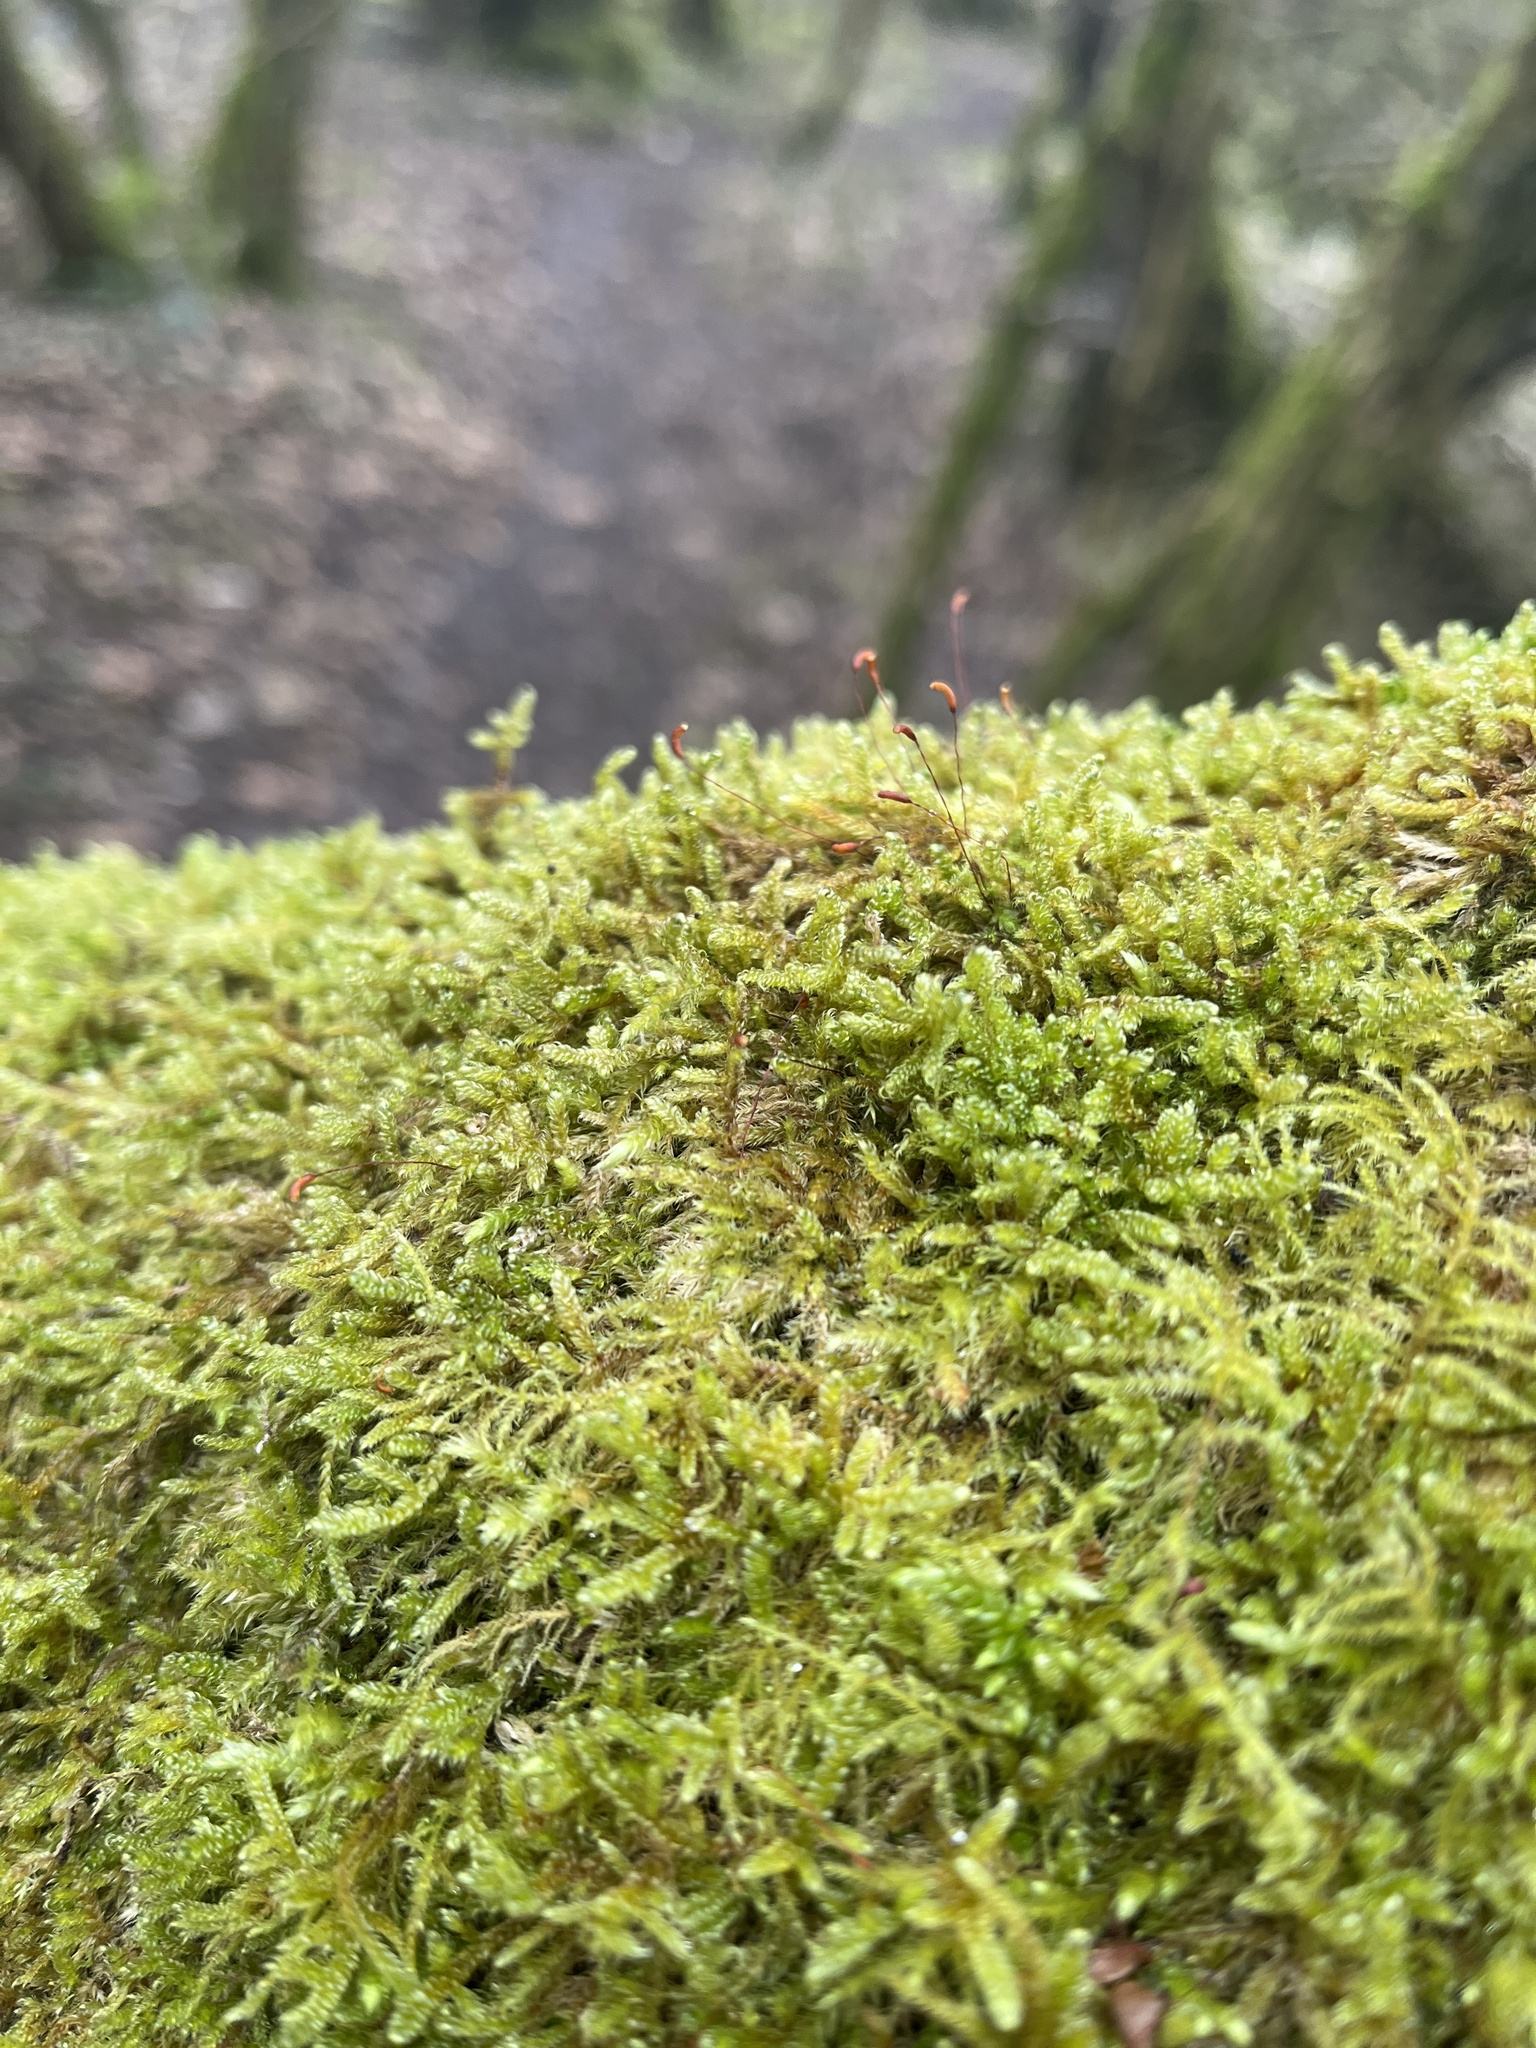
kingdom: Plantae
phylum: Bryophyta
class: Bryopsida
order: Hypnales
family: Hypnaceae
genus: Hypnum
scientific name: Hypnum cupressiforme
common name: Cypress-leaved plait-moss
